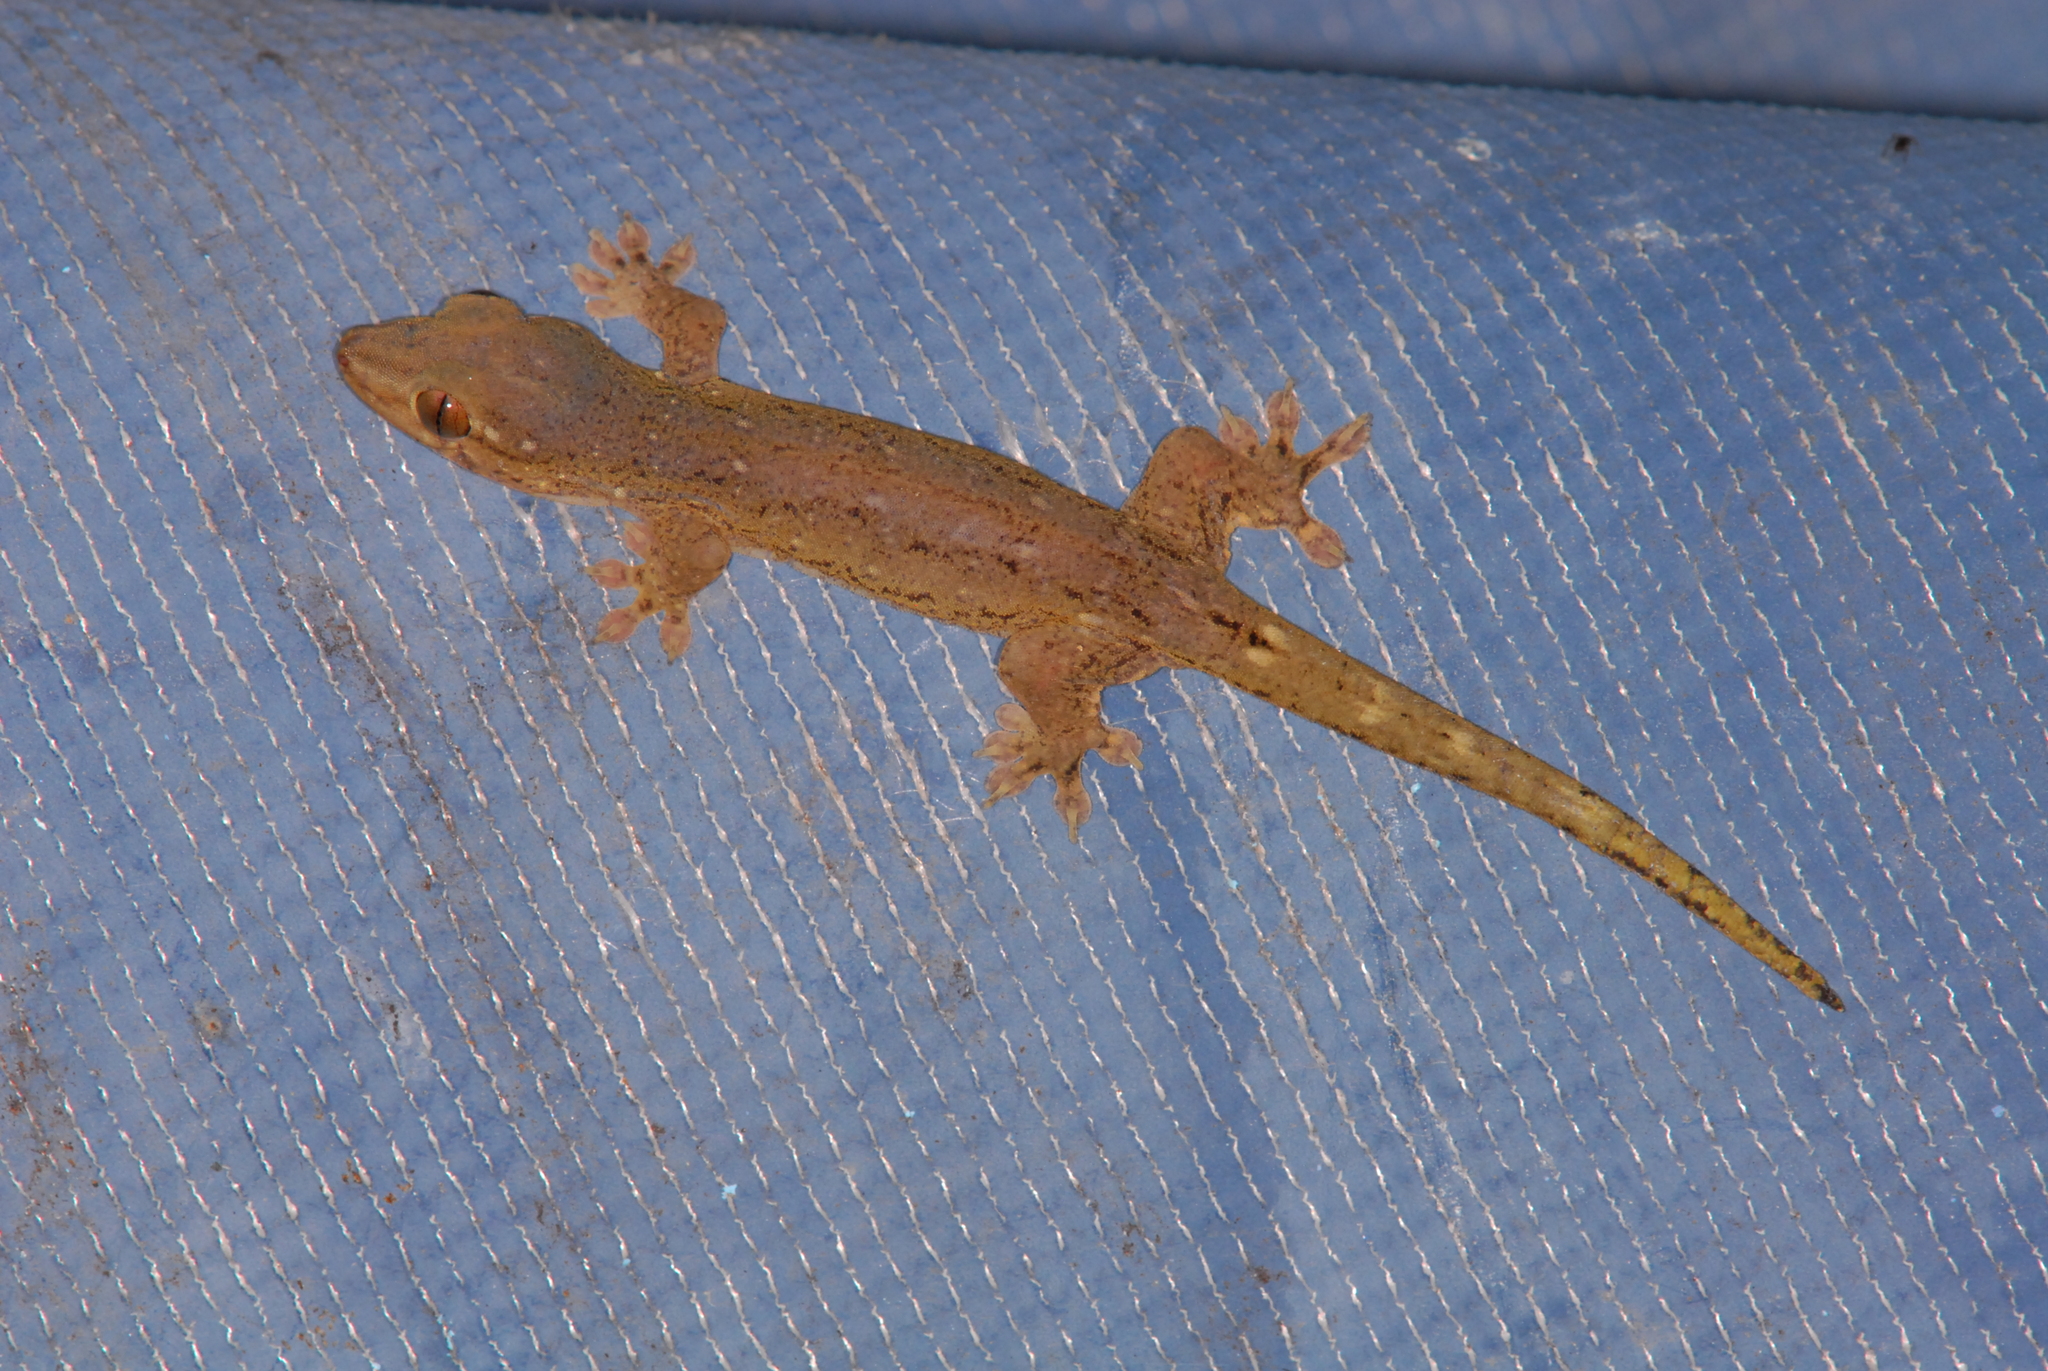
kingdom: Animalia
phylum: Chordata
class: Squamata
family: Gekkonidae
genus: Gehyra
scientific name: Gehyra oceanica
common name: Pacific dtella
